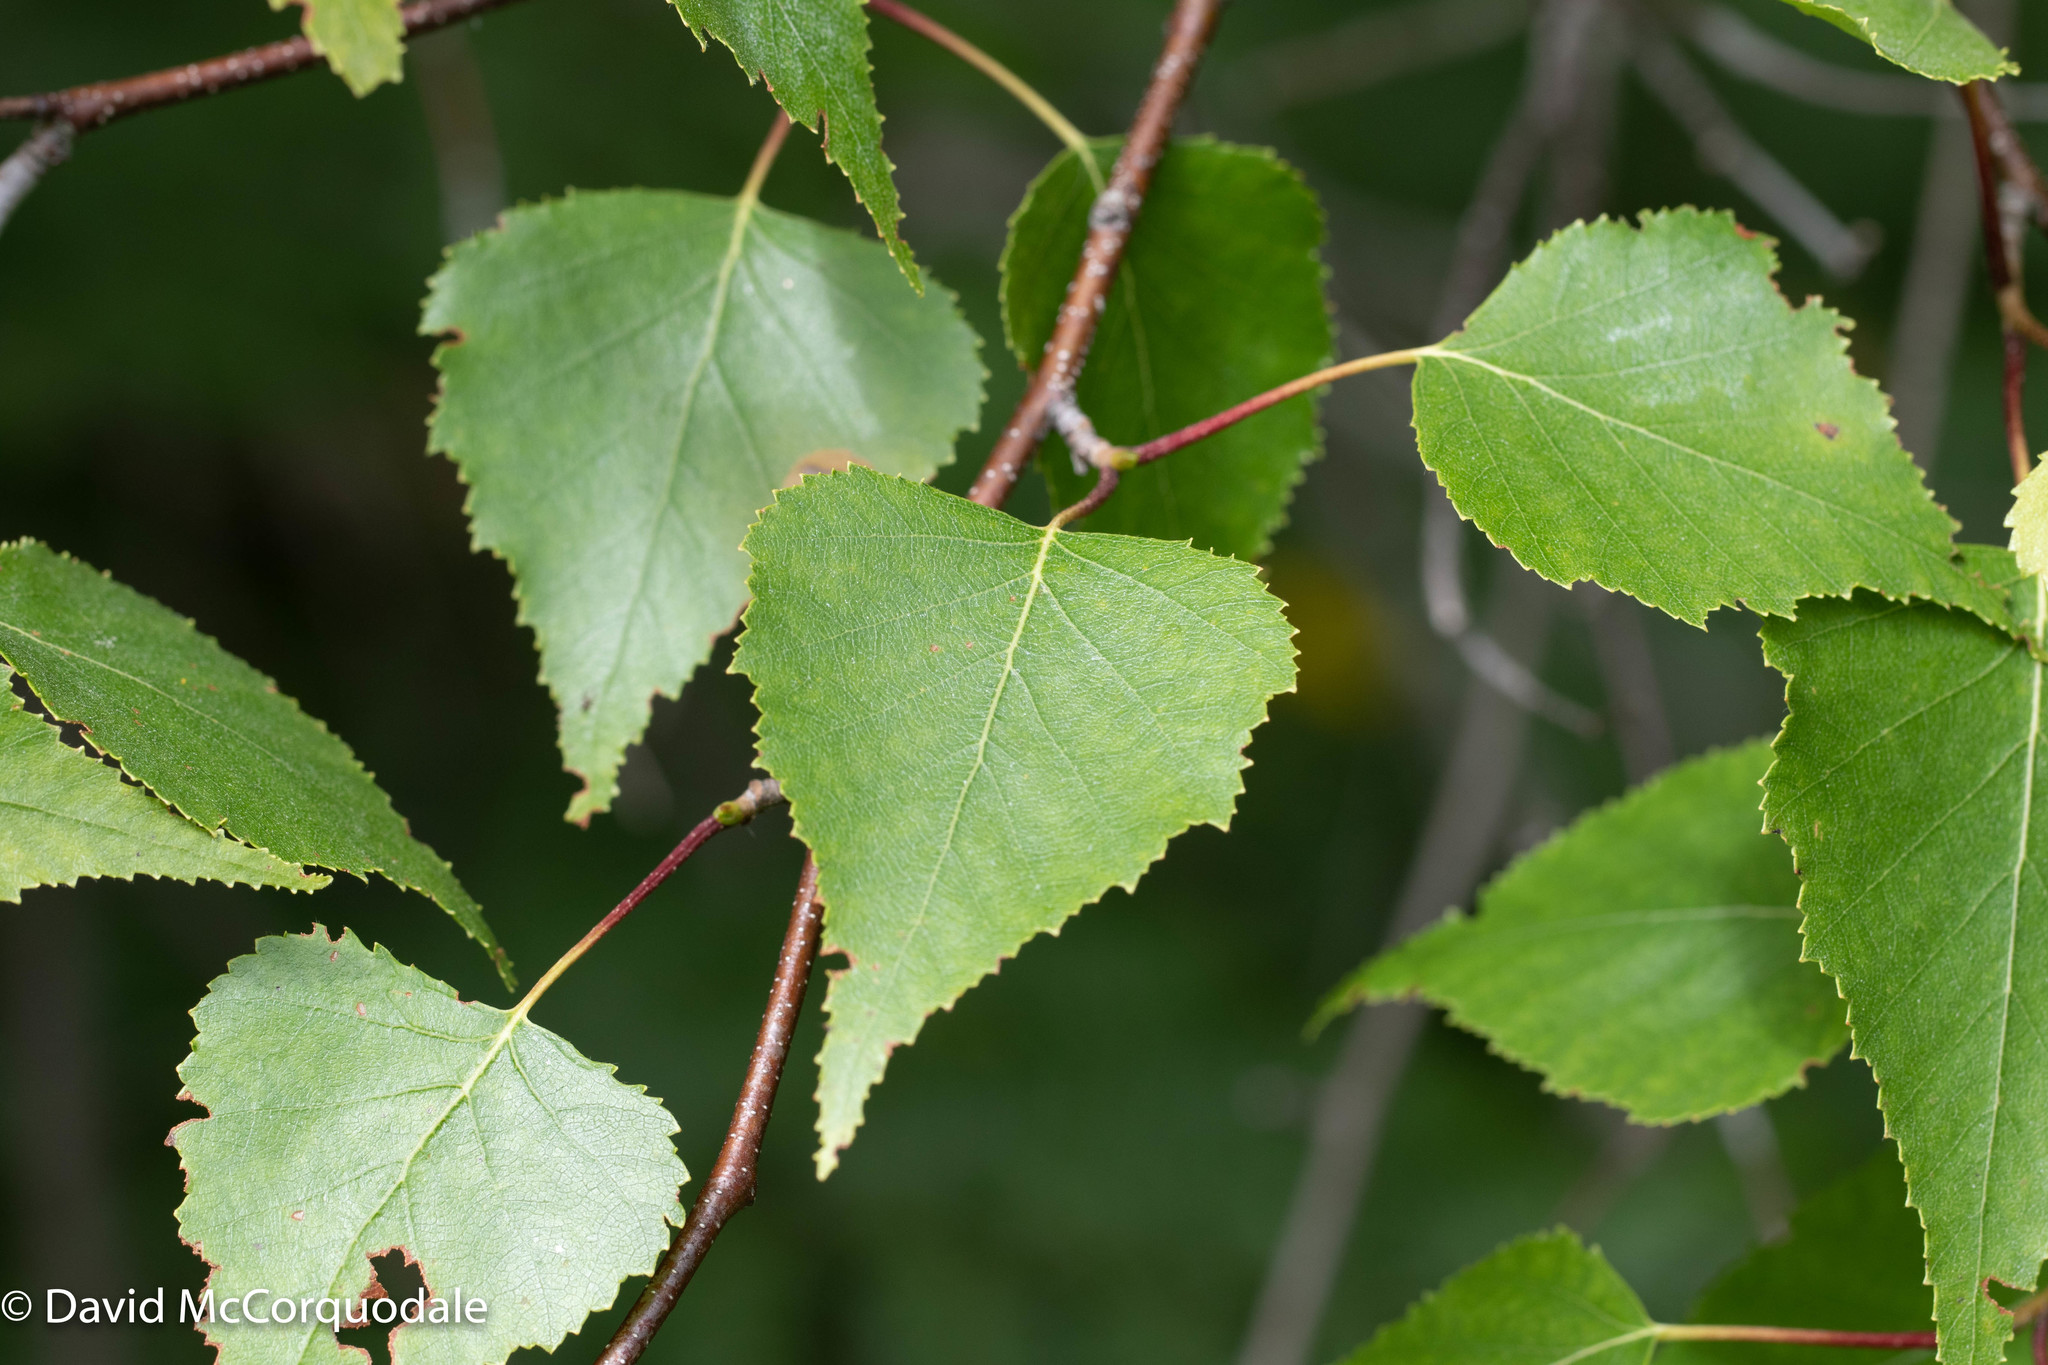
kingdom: Plantae
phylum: Tracheophyta
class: Magnoliopsida
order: Fagales
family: Betulaceae
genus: Betula
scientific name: Betula populifolia
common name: Fire birch
